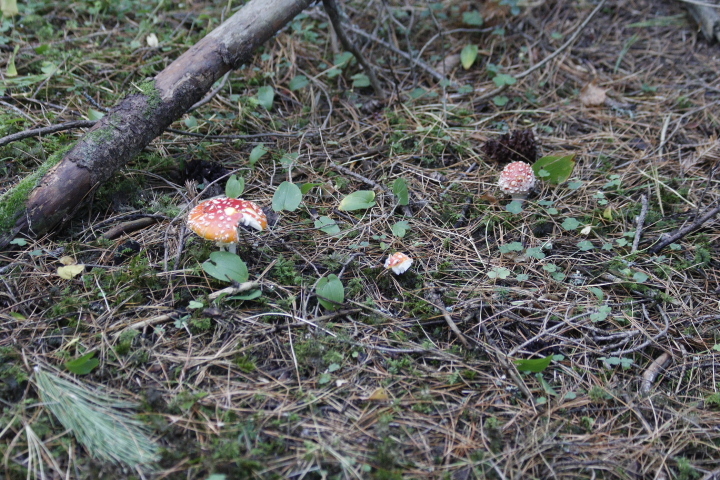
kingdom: Fungi
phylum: Basidiomycota
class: Agaricomycetes
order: Agaricales
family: Amanitaceae
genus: Amanita
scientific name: Amanita muscaria
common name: Fly agaric
